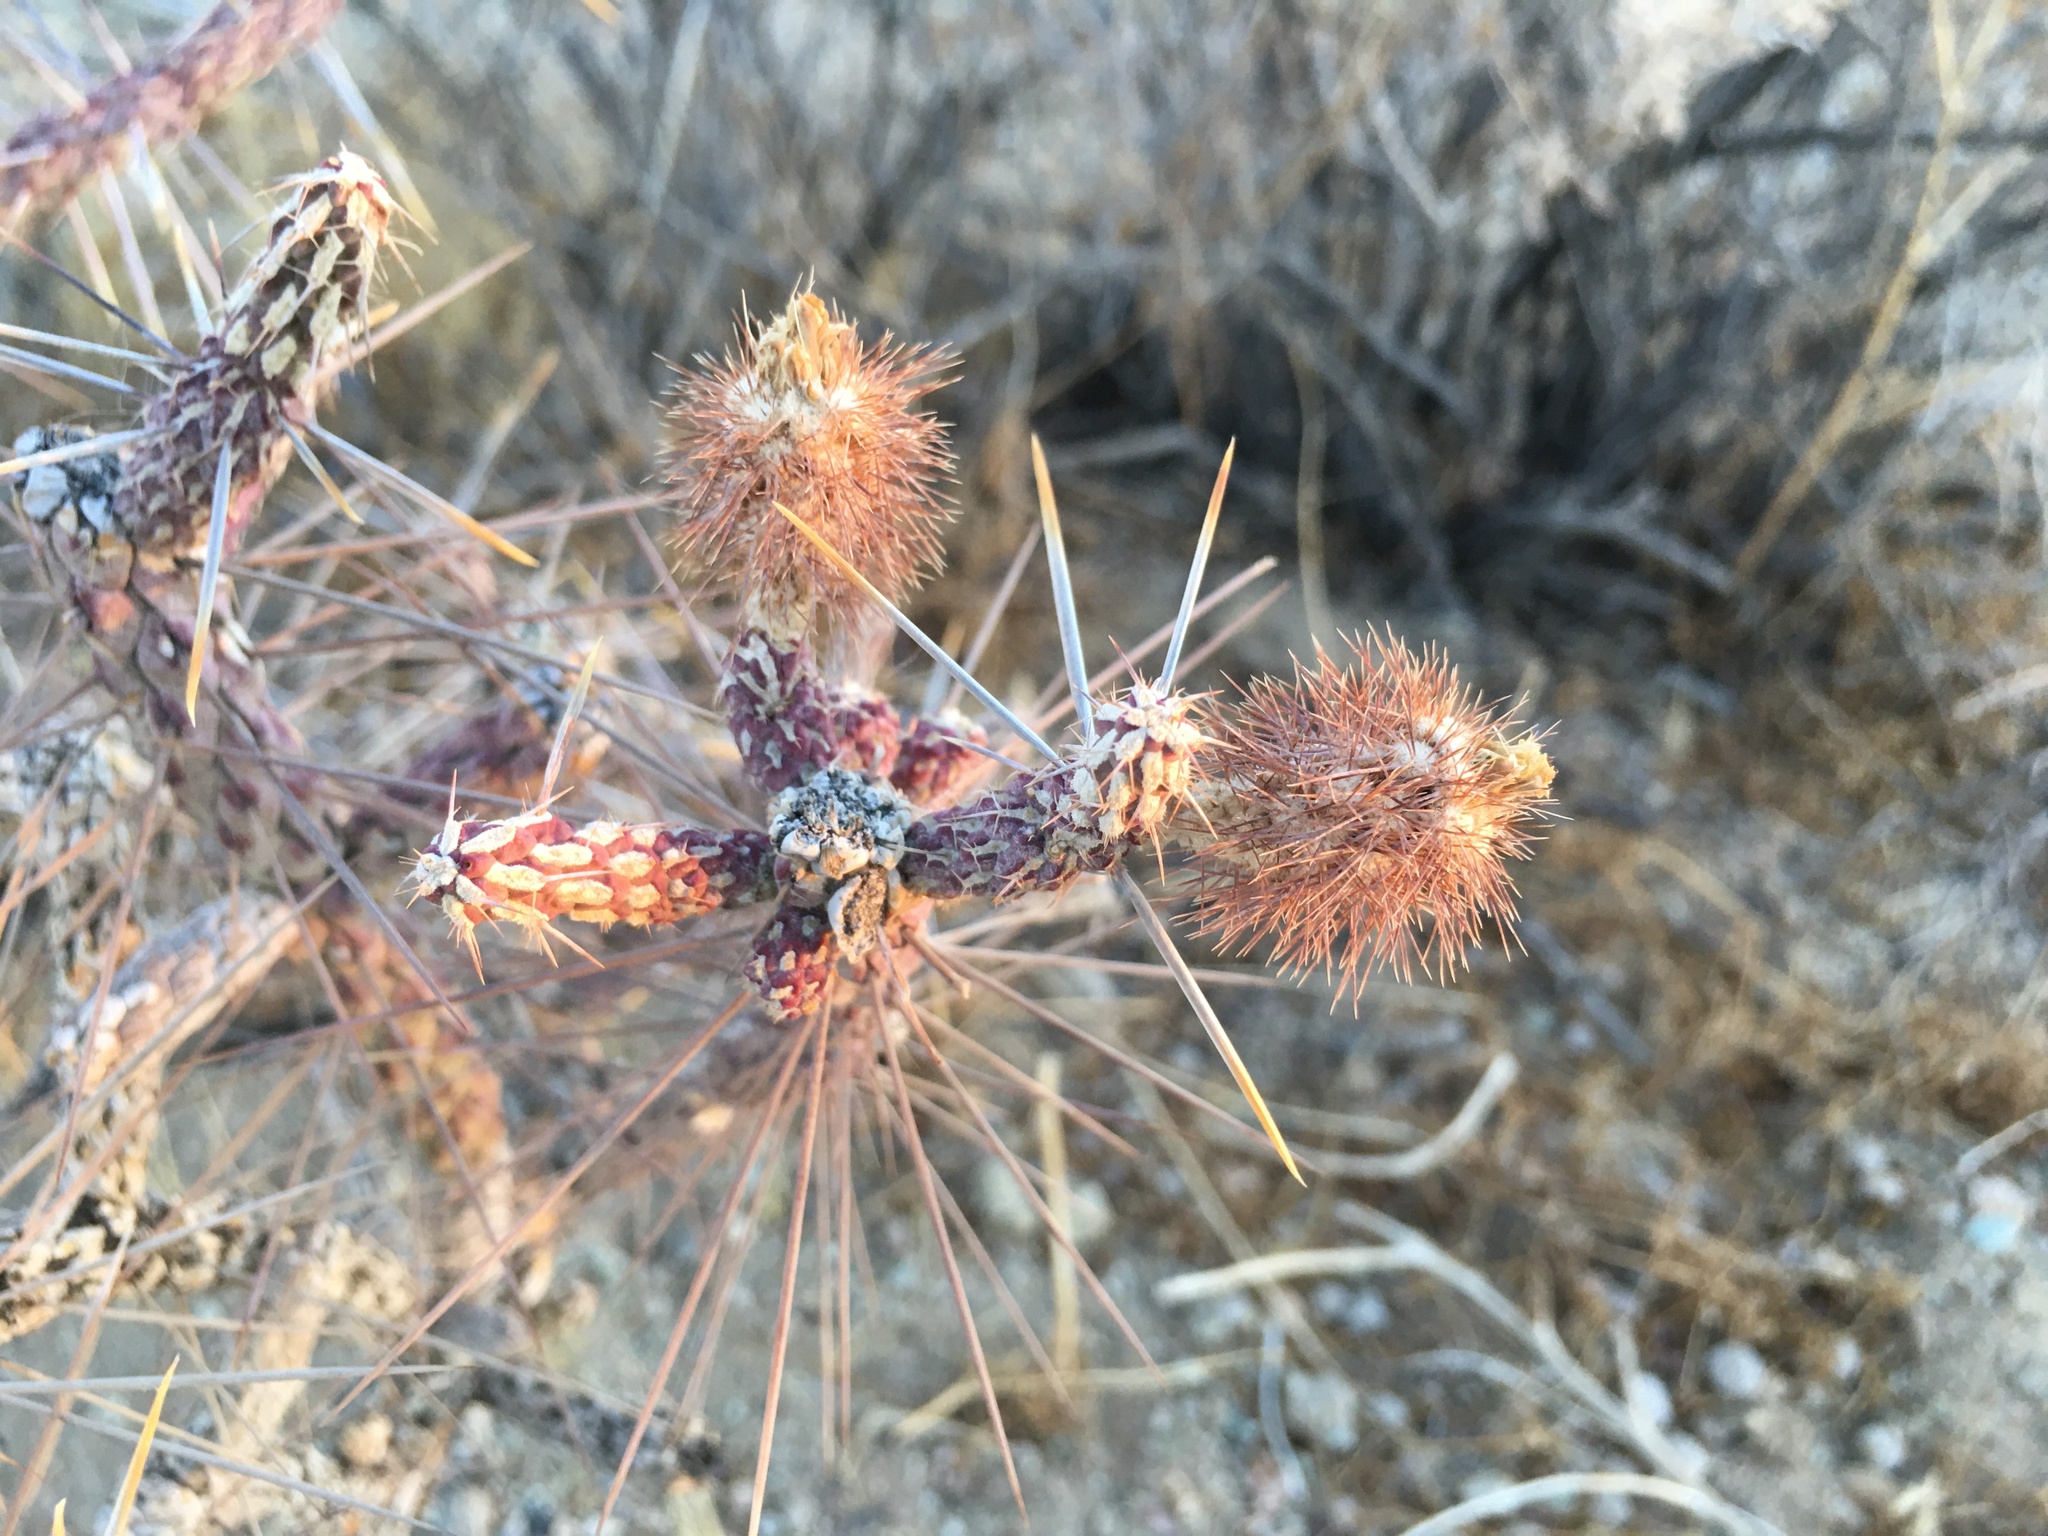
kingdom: Plantae
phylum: Tracheophyta
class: Magnoliopsida
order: Caryophyllales
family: Cactaceae
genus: Cylindropuntia
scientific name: Cylindropuntia ramosissima
